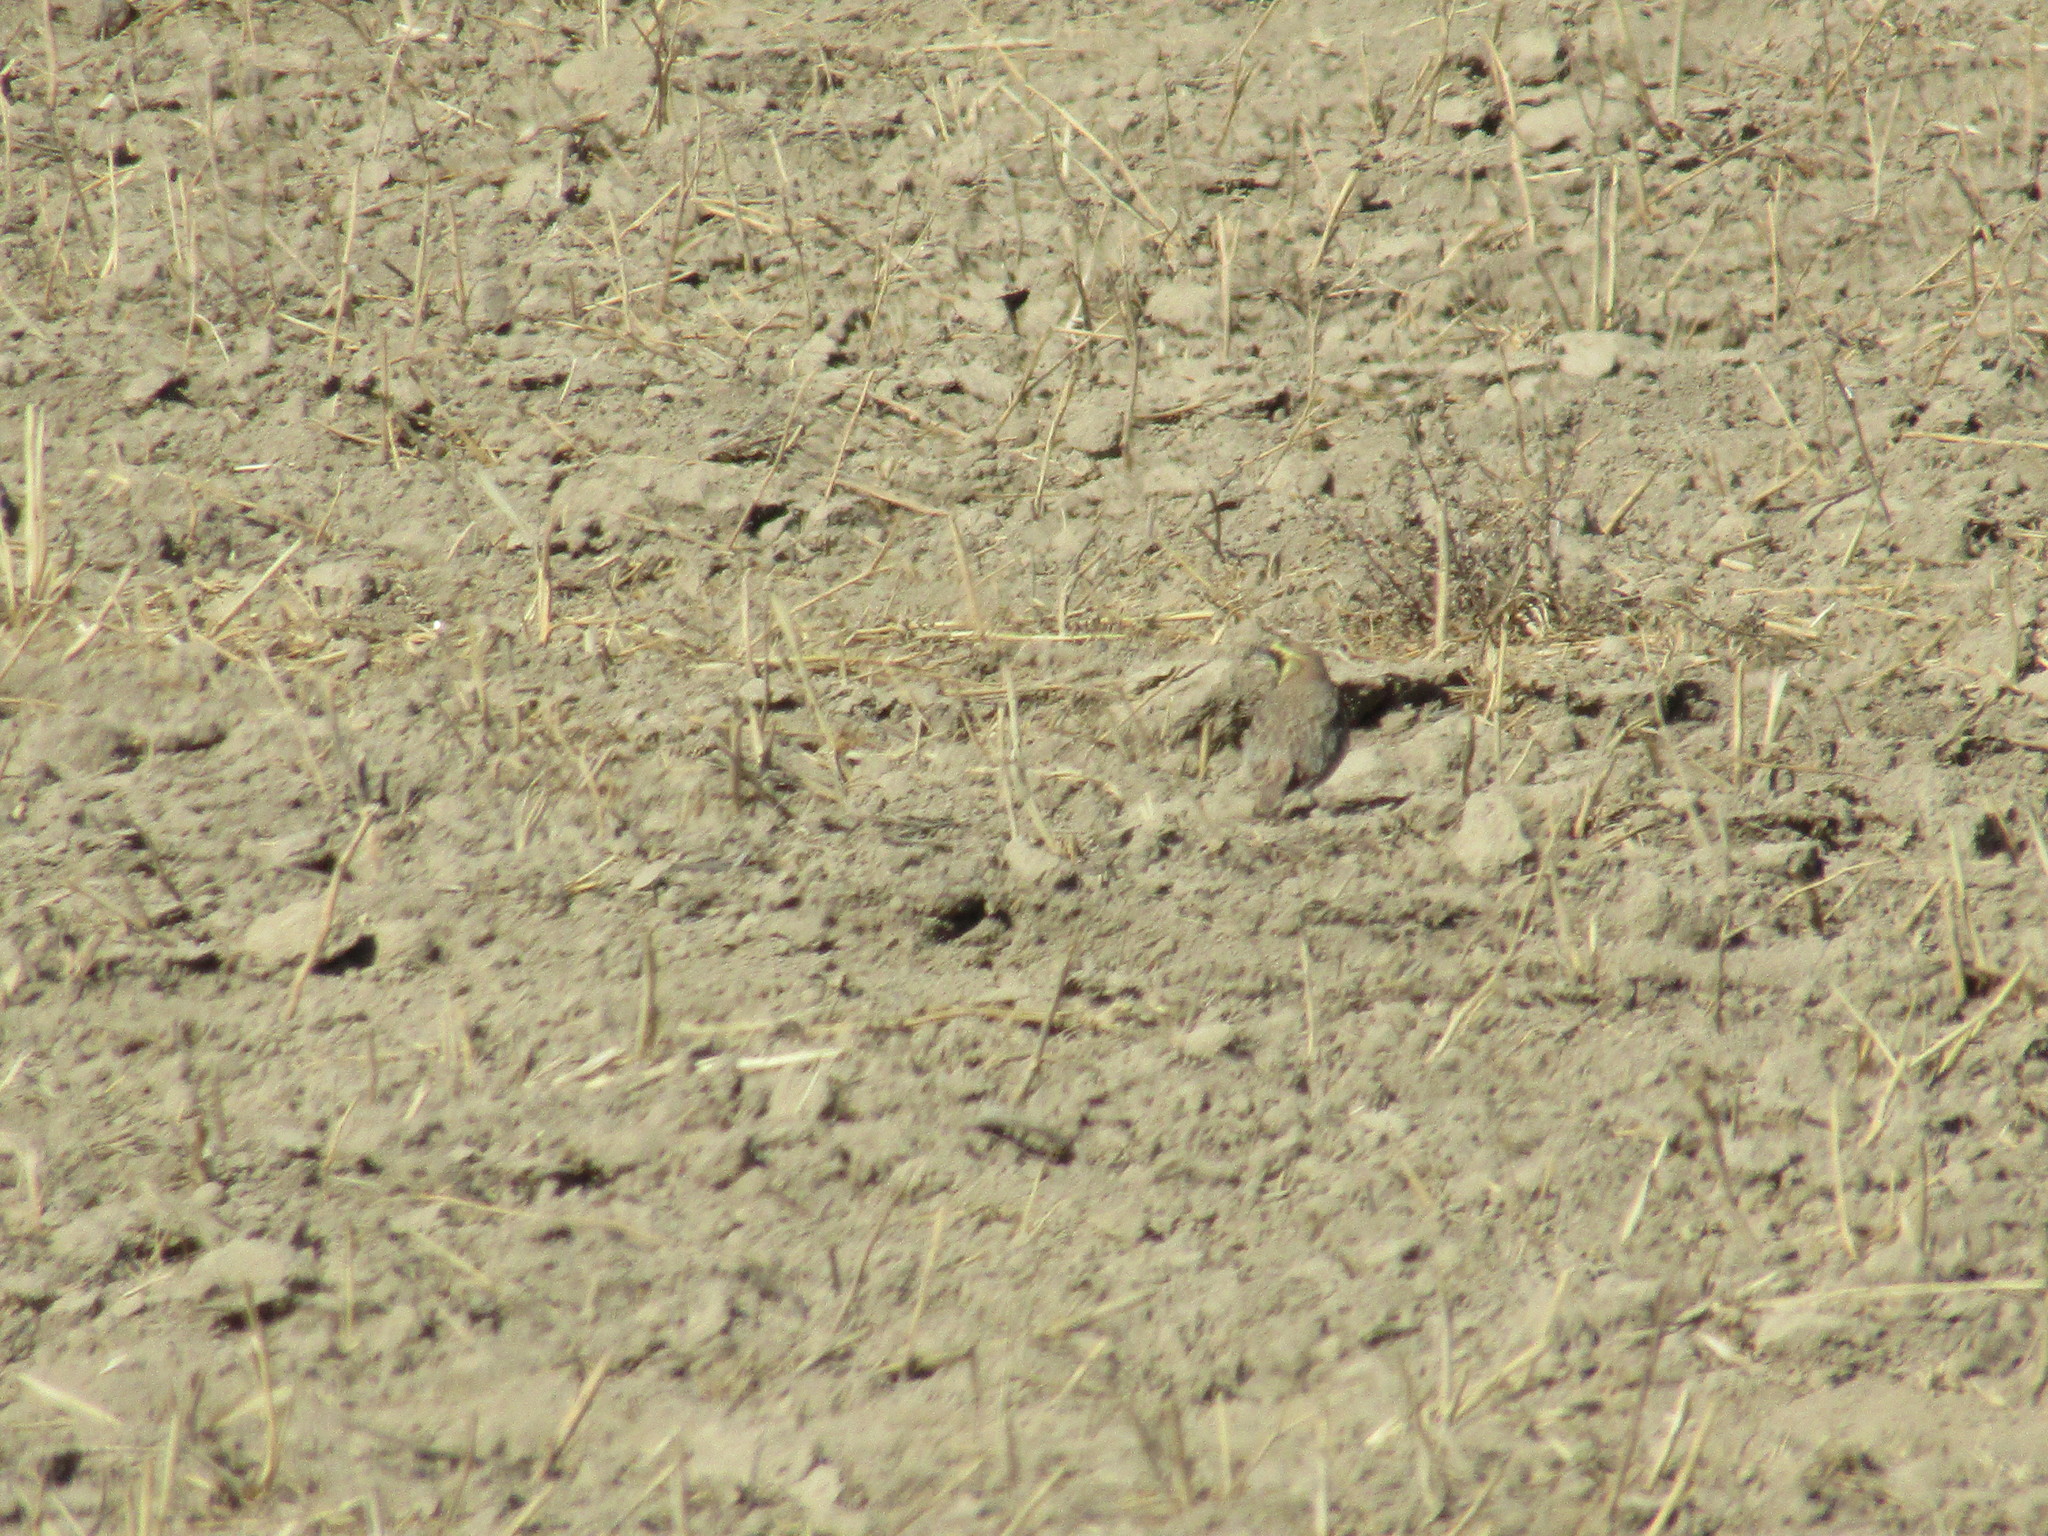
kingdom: Animalia
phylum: Chordata
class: Aves
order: Passeriformes
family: Alaudidae
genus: Eremophila
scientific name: Eremophila alpestris
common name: Horned lark
